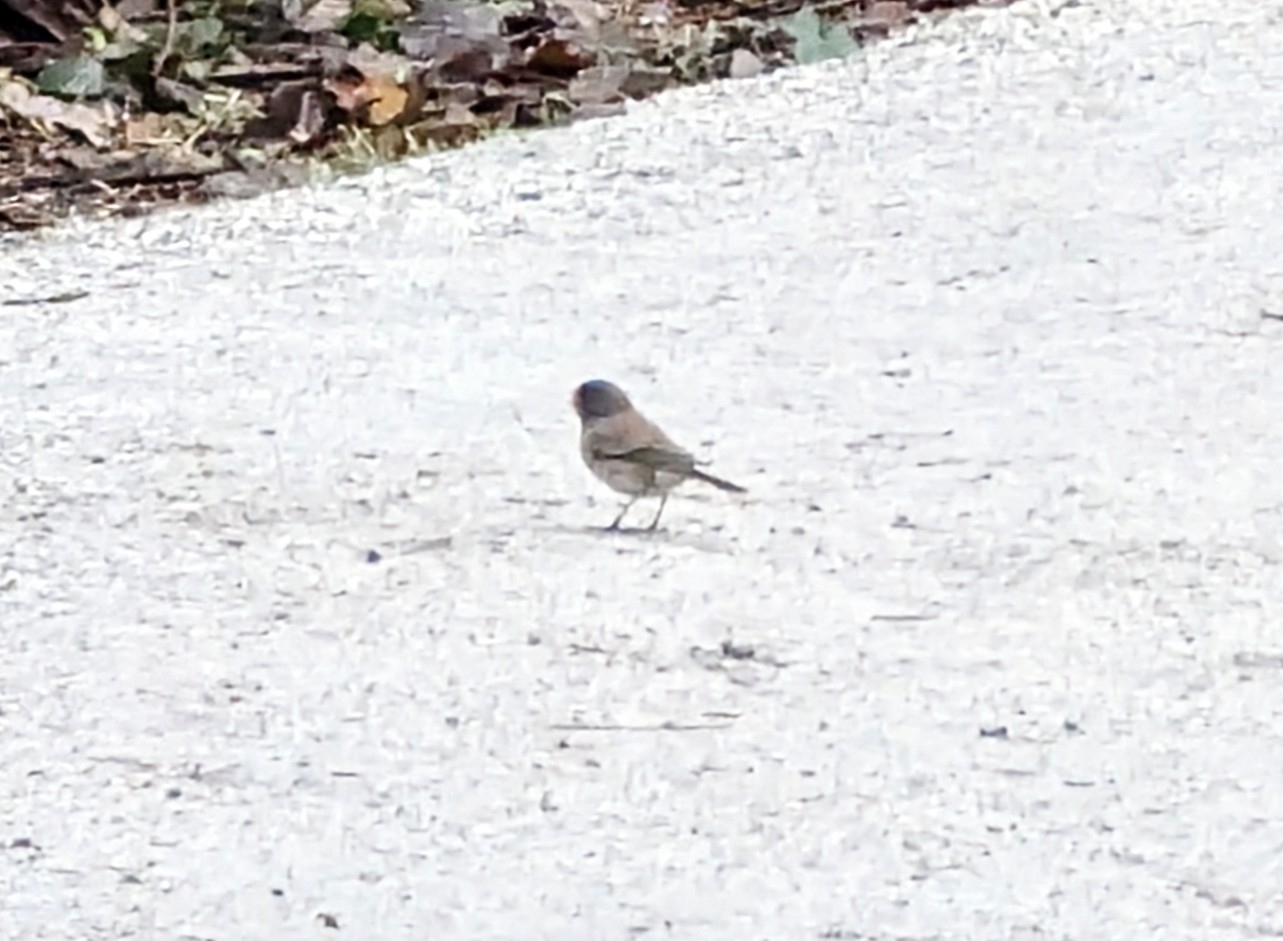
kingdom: Animalia
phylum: Chordata
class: Aves
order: Passeriformes
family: Passerellidae
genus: Junco
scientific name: Junco hyemalis
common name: Dark-eyed junco
